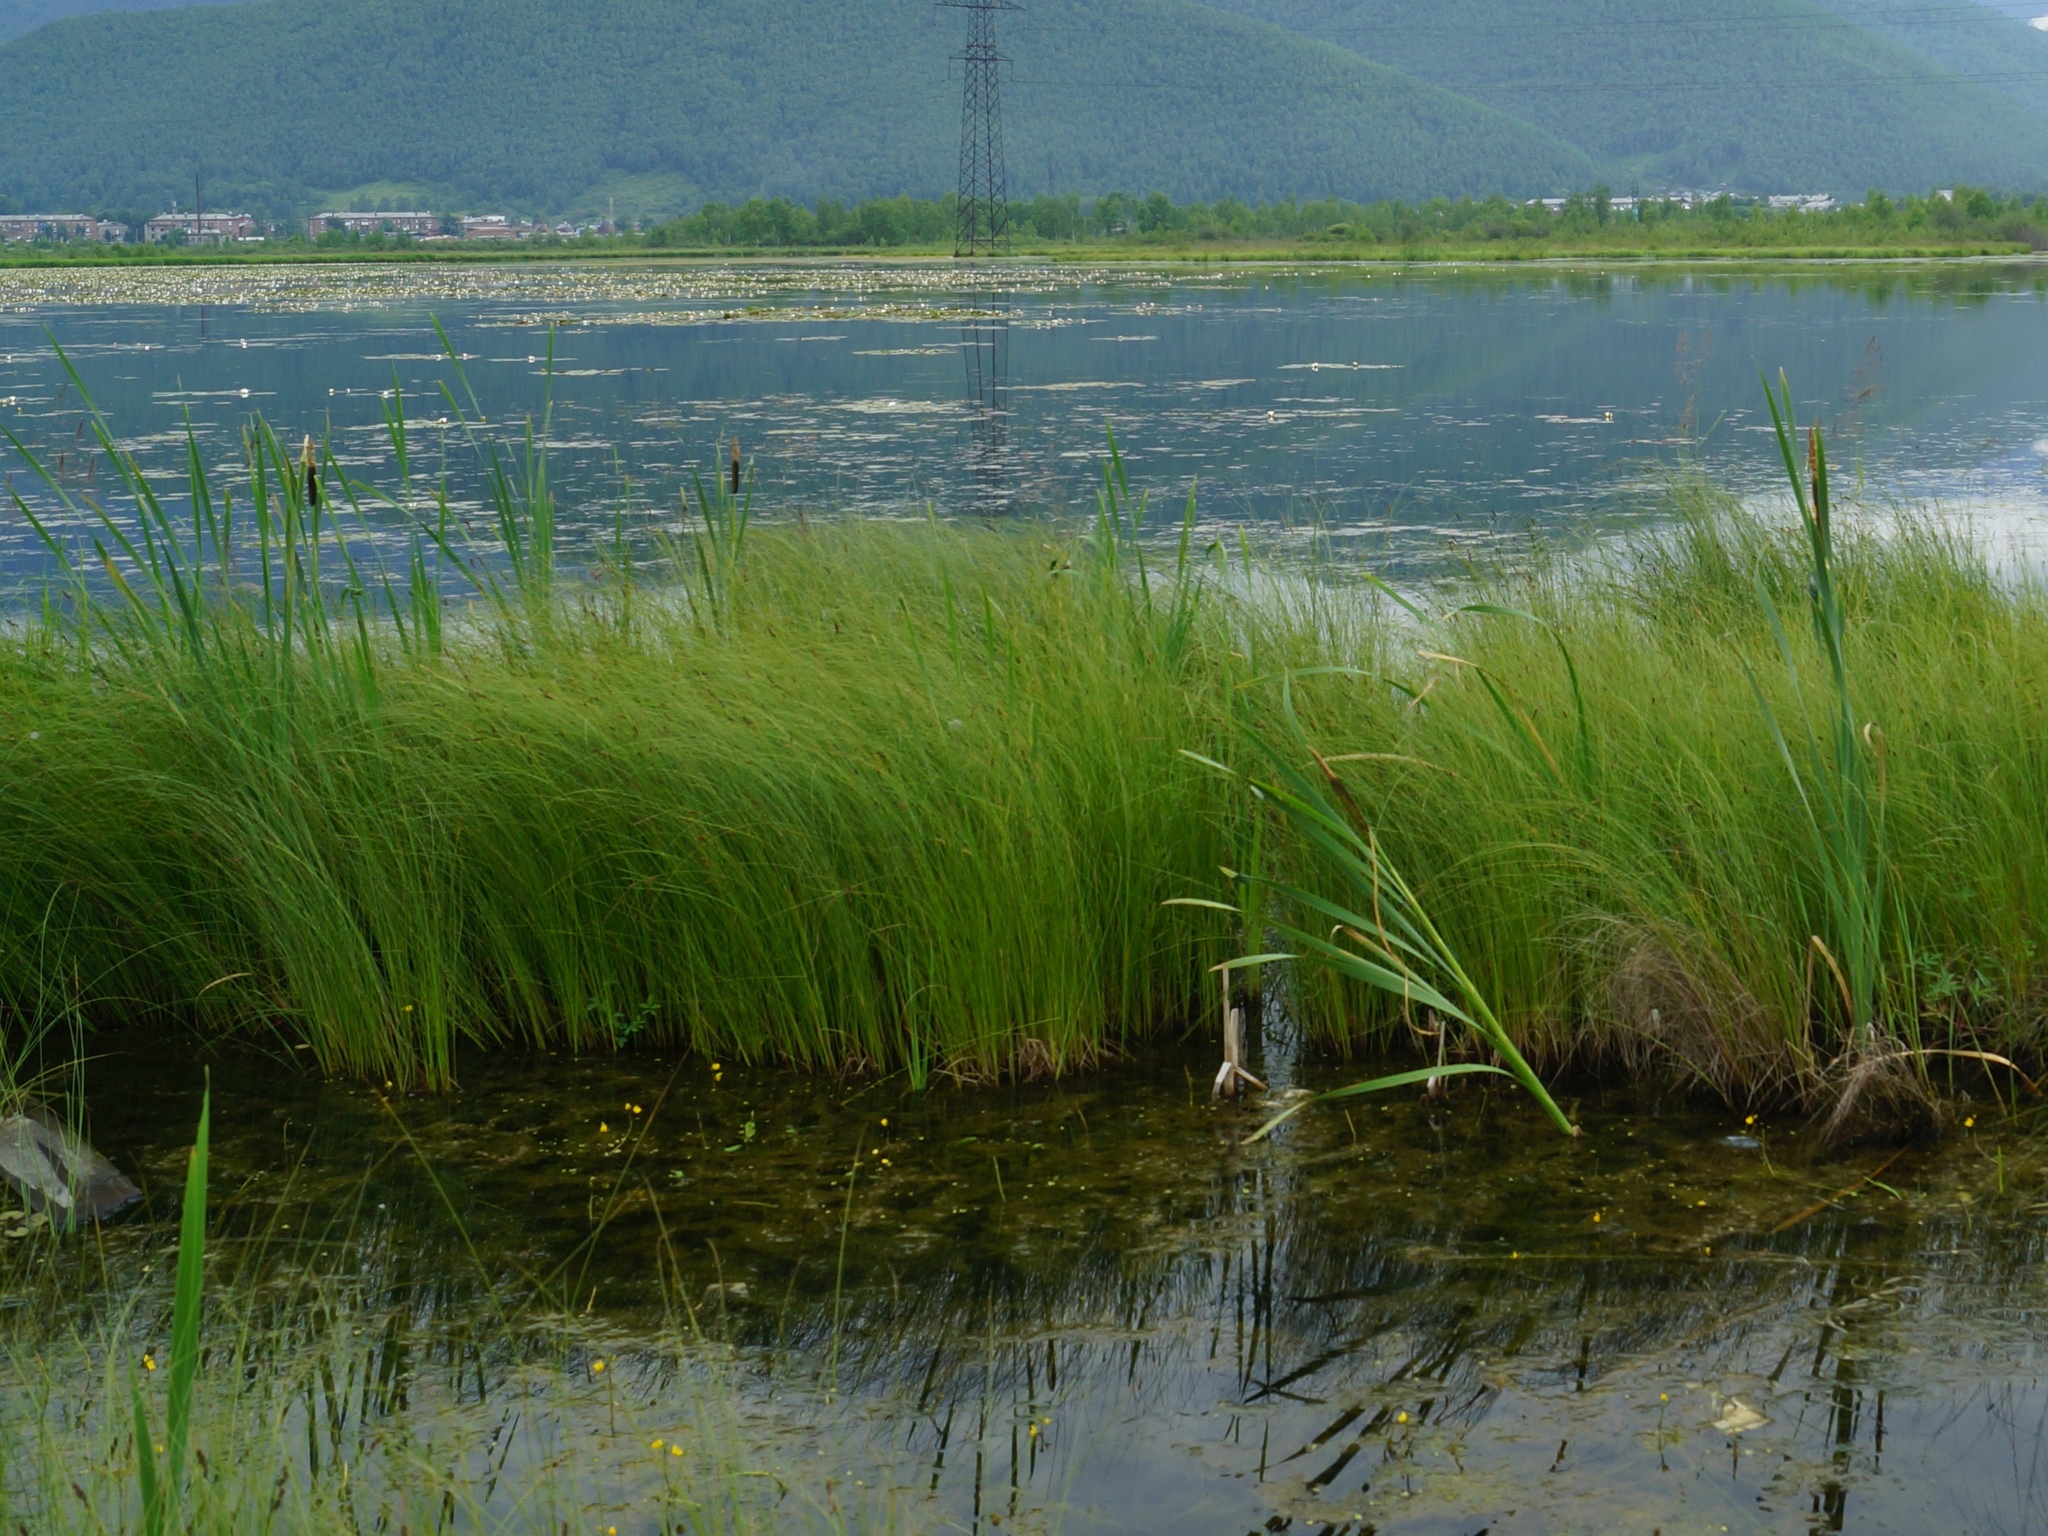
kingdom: Plantae
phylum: Tracheophyta
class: Liliopsida
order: Poales
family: Typhaceae
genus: Typha
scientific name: Typha latifolia
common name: Broadleaf cattail
